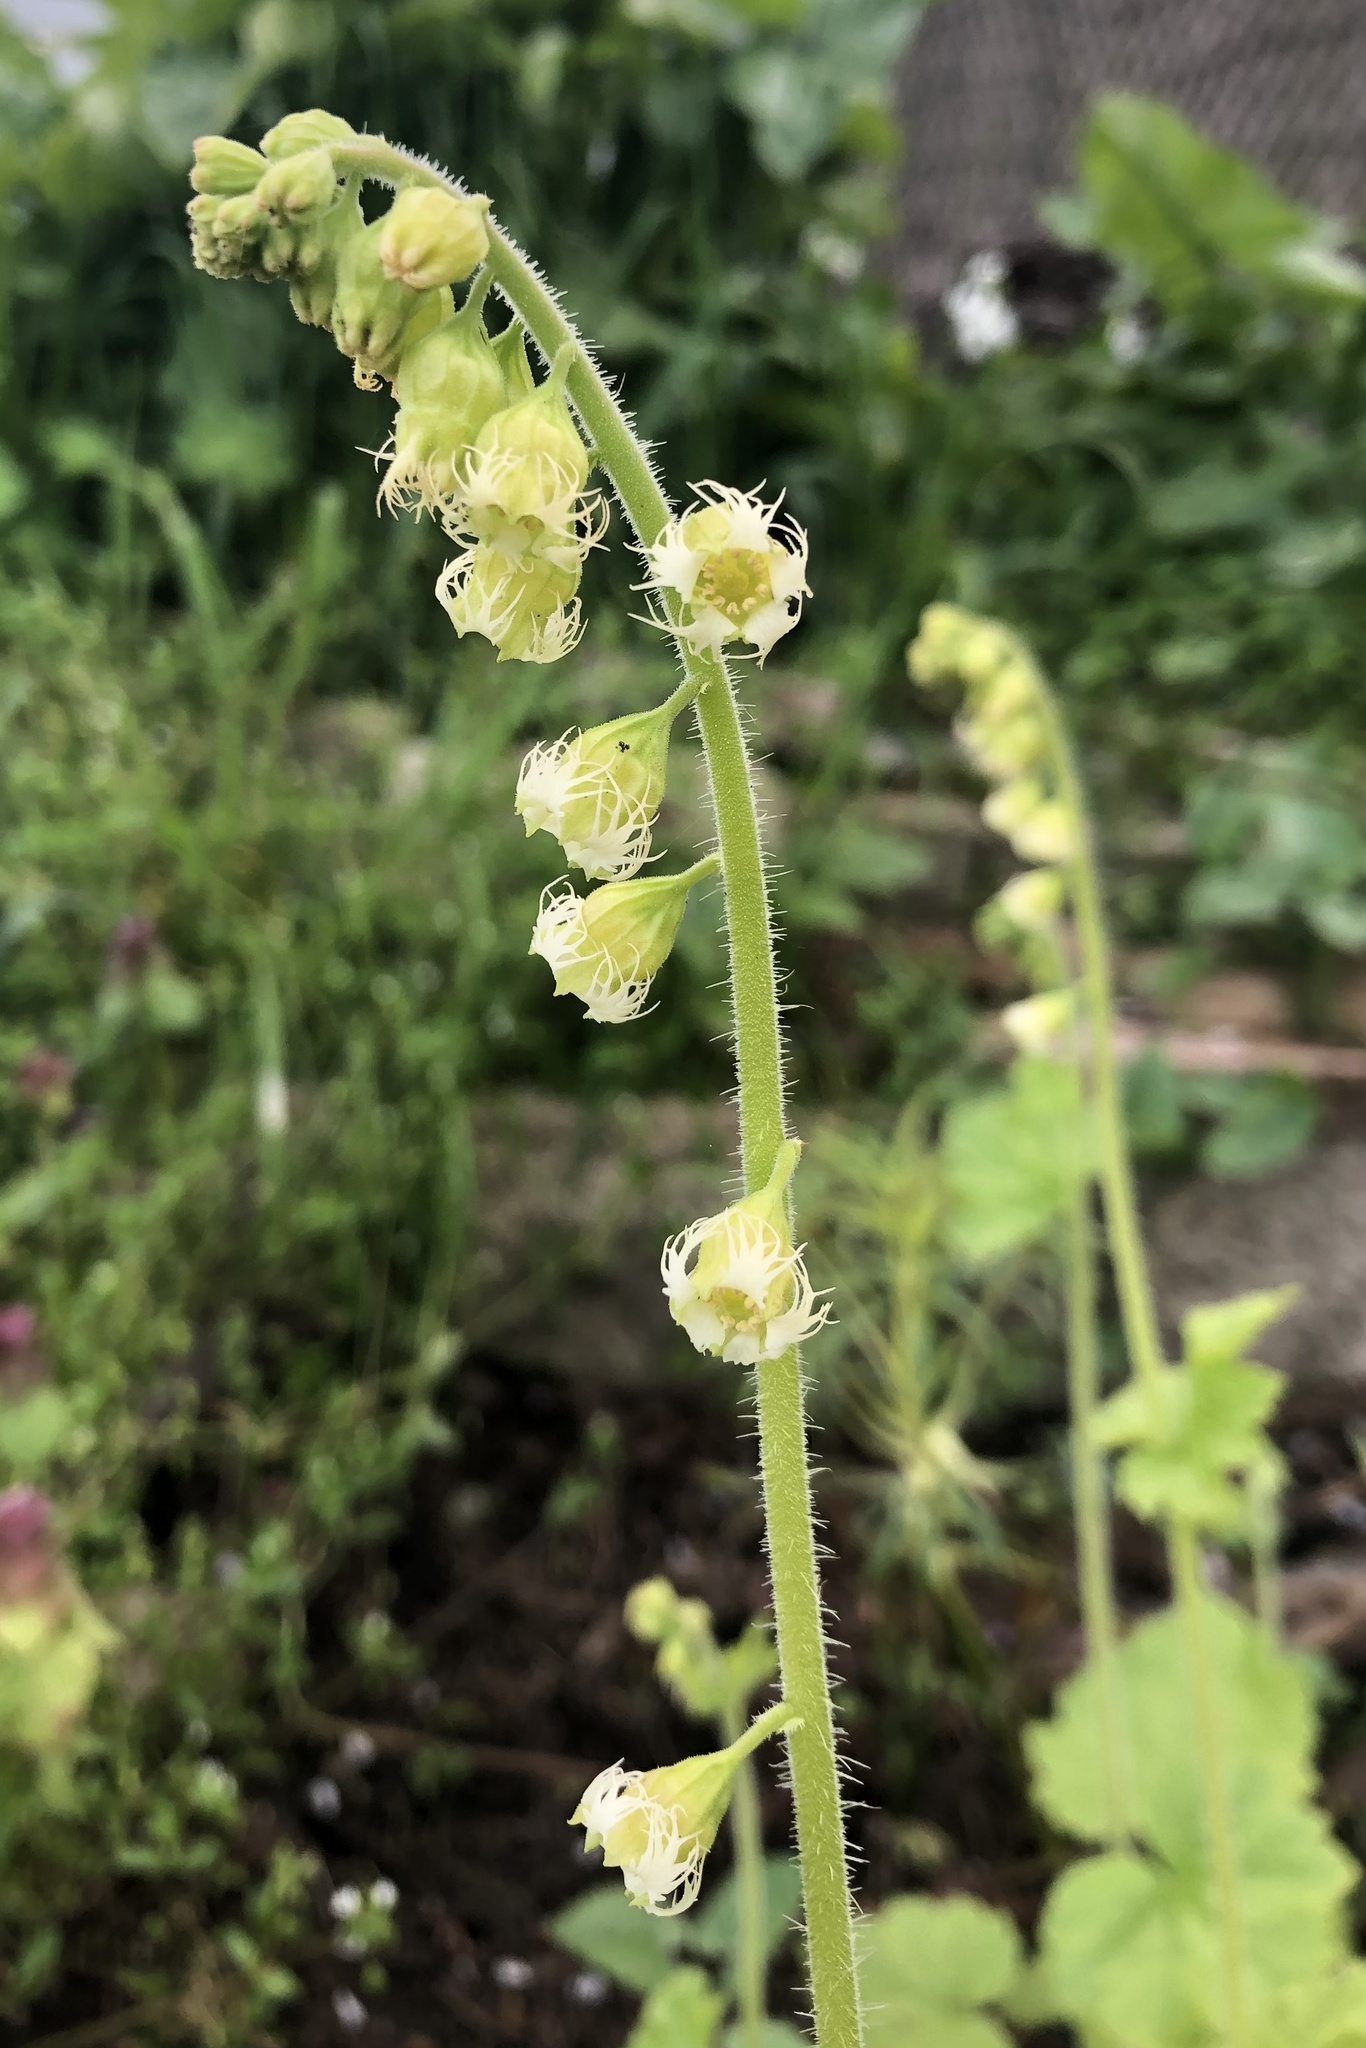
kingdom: Plantae
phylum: Tracheophyta
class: Magnoliopsida
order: Saxifragales
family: Saxifragaceae
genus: Tellima
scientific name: Tellima grandiflora
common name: Fringecups
